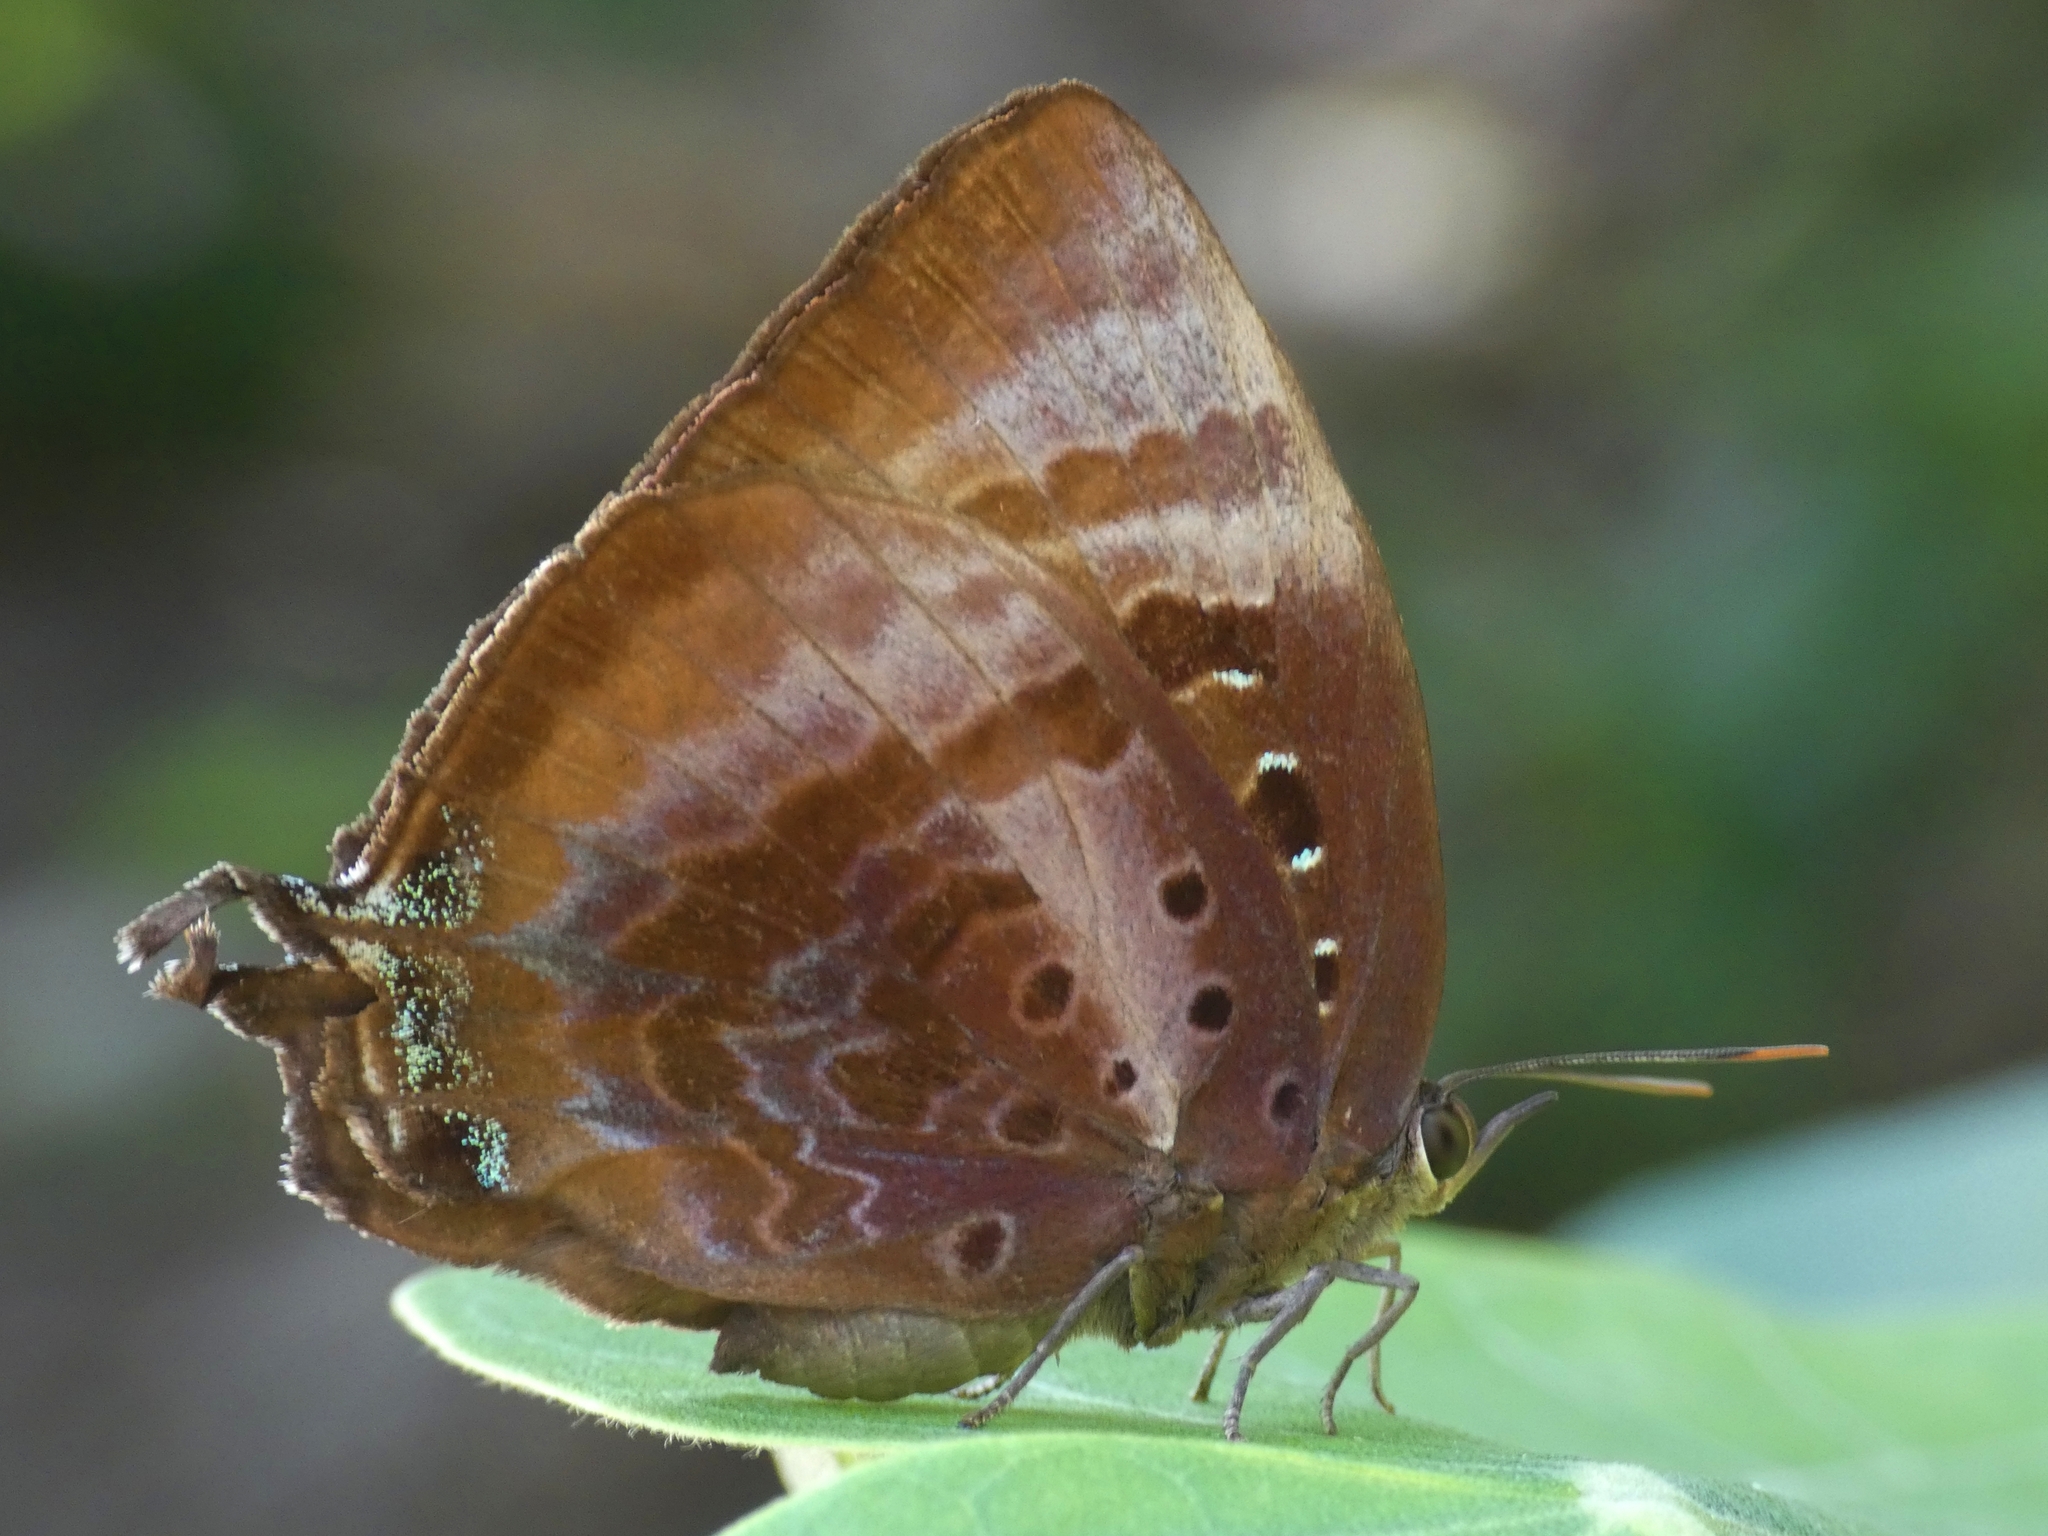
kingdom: Animalia
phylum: Arthropoda
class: Insecta
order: Lepidoptera
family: Lycaenidae
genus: Arhopala
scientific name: Arhopala micale
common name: Shining oak-blue
